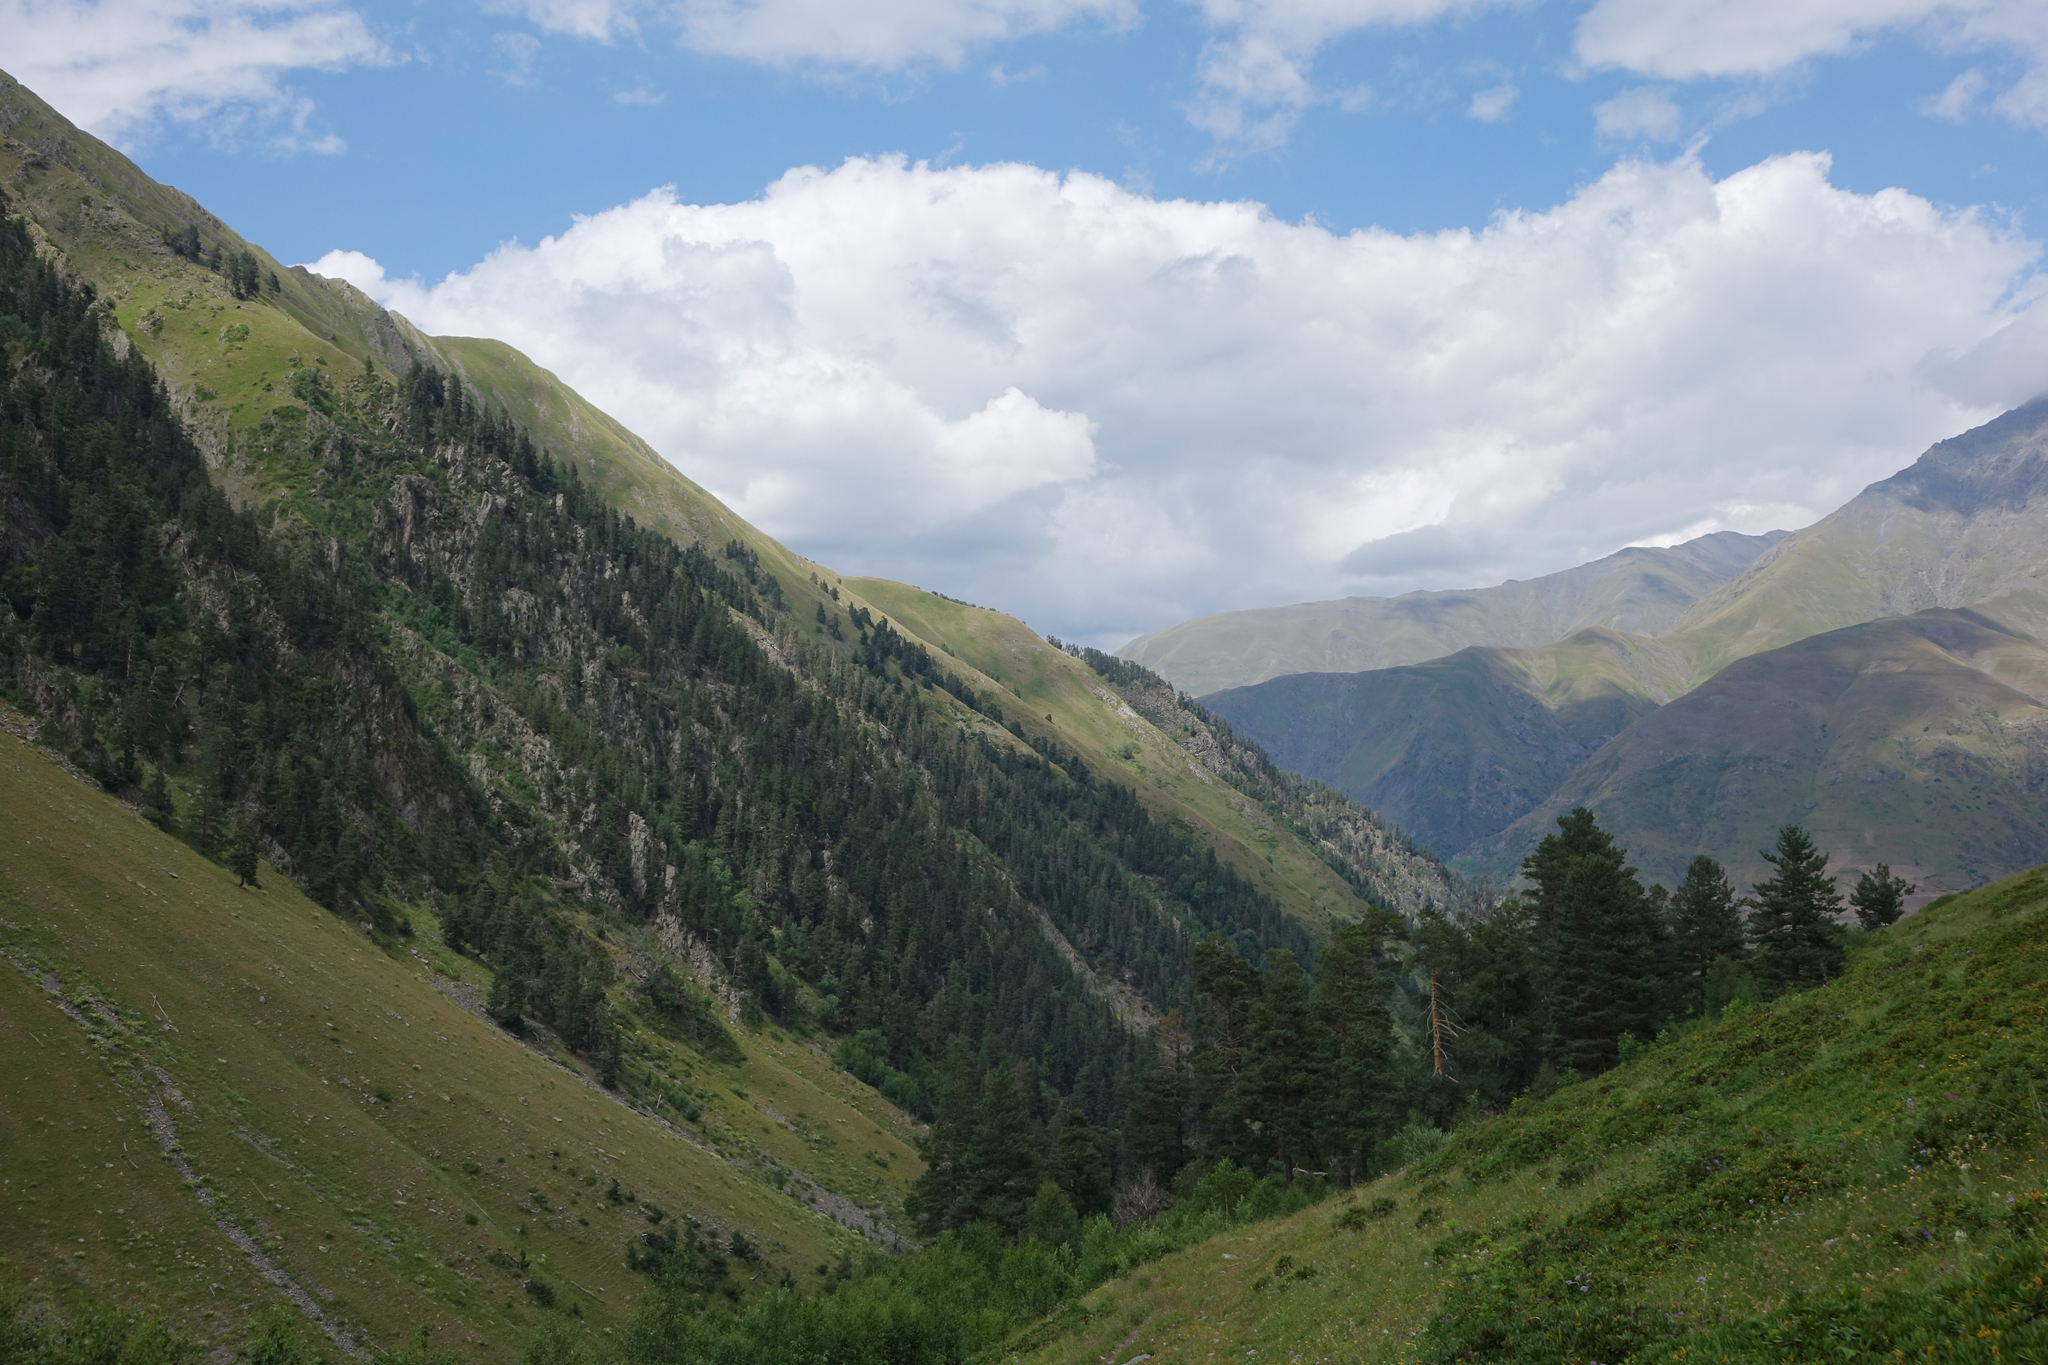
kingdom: Plantae
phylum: Tracheophyta
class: Pinopsida
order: Pinales
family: Pinaceae
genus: Pinus
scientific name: Pinus sylvestris
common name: Scots pine
